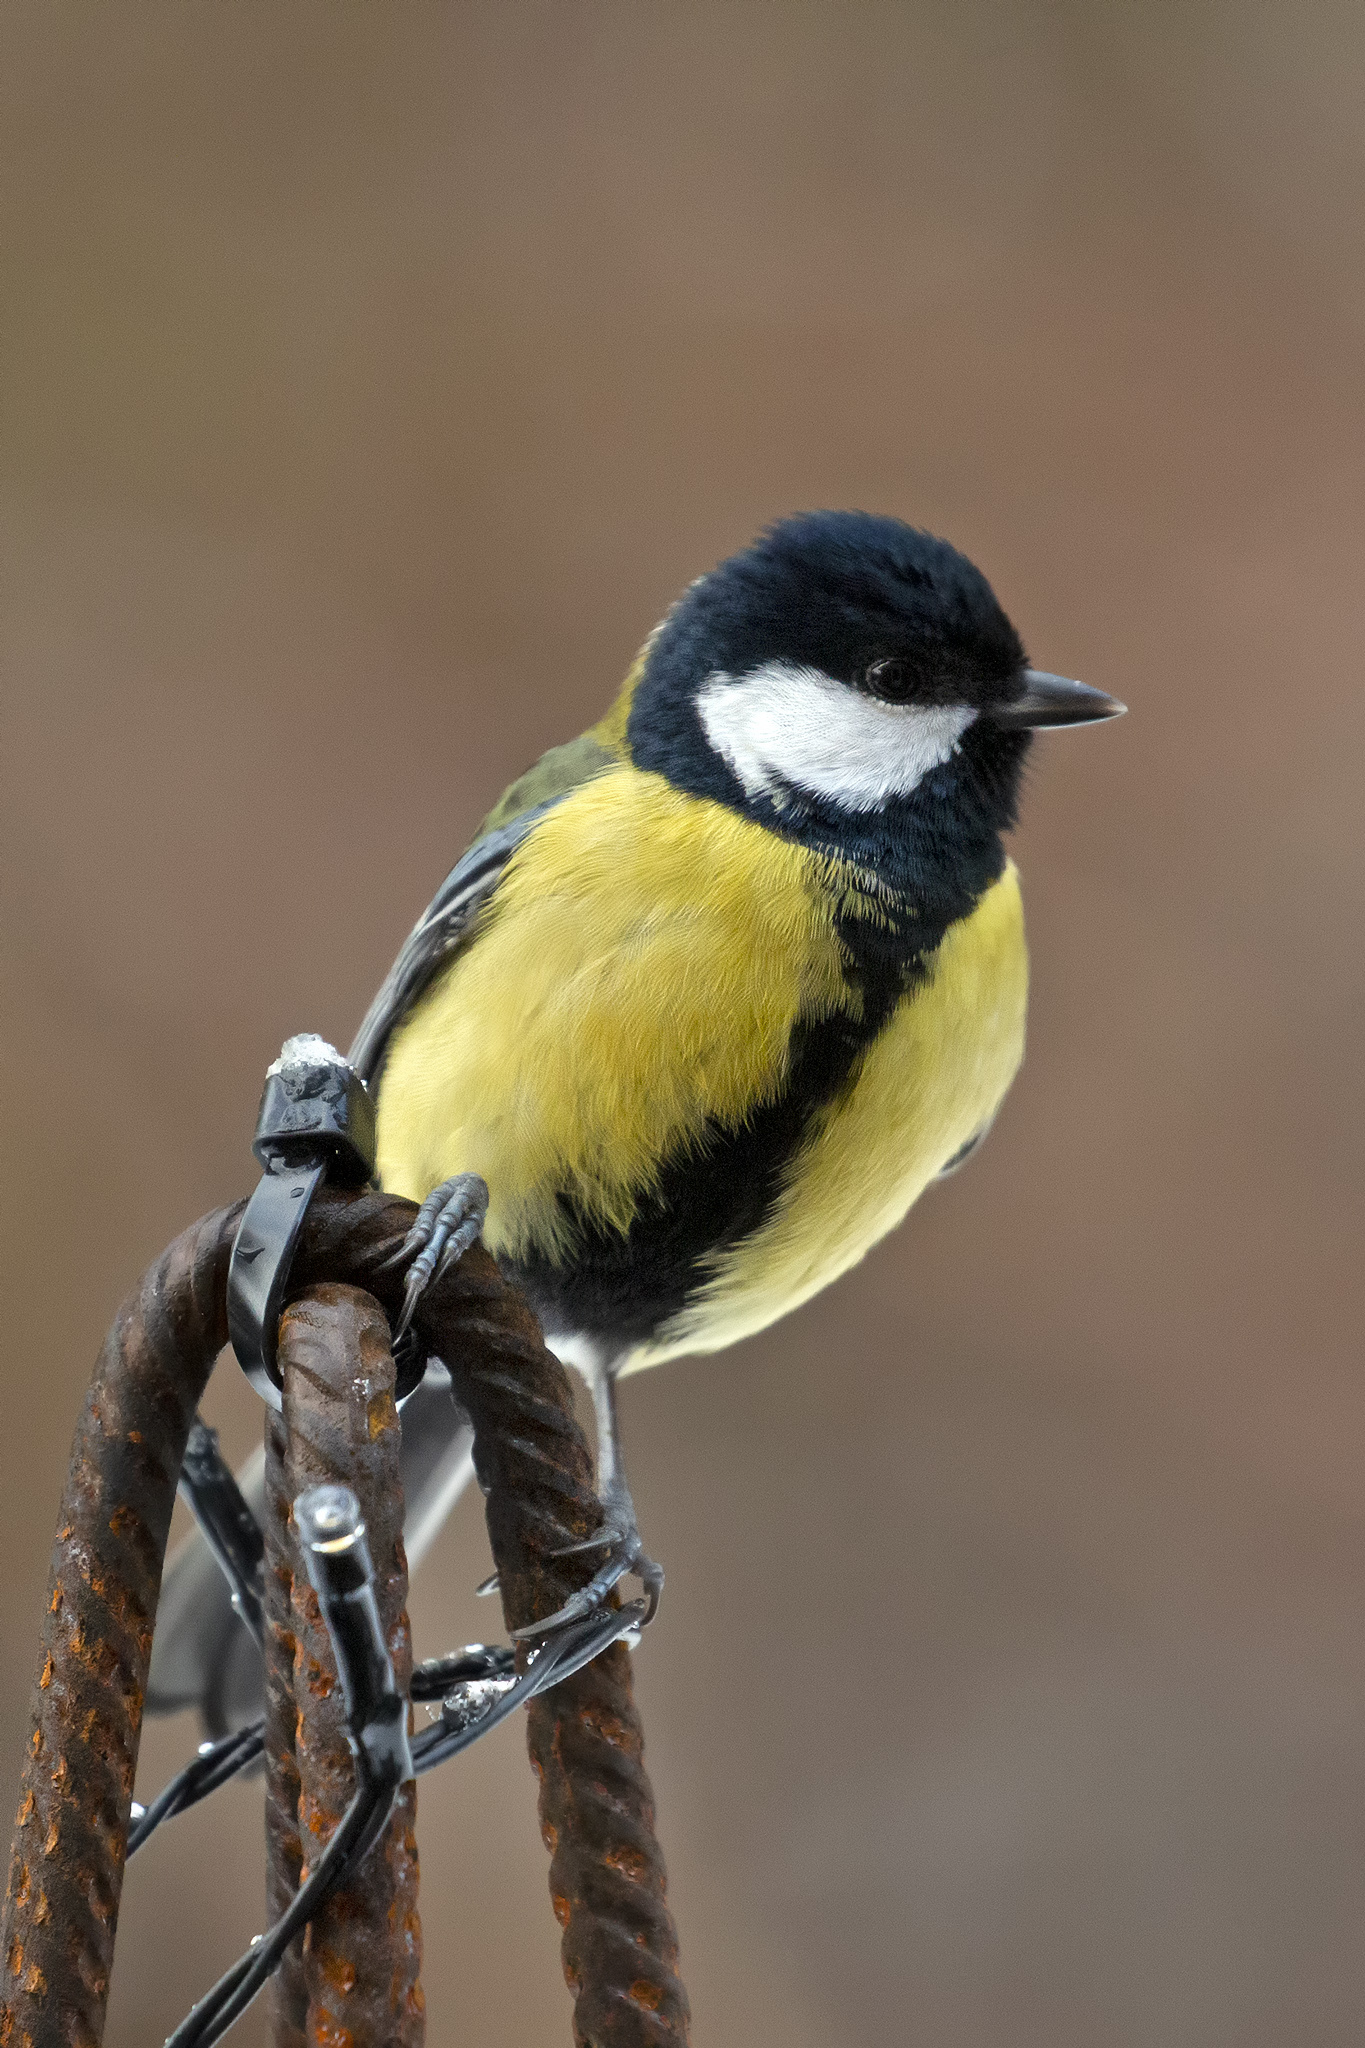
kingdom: Animalia
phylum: Chordata
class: Aves
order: Passeriformes
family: Paridae
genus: Parus
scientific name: Parus major
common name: Great tit
